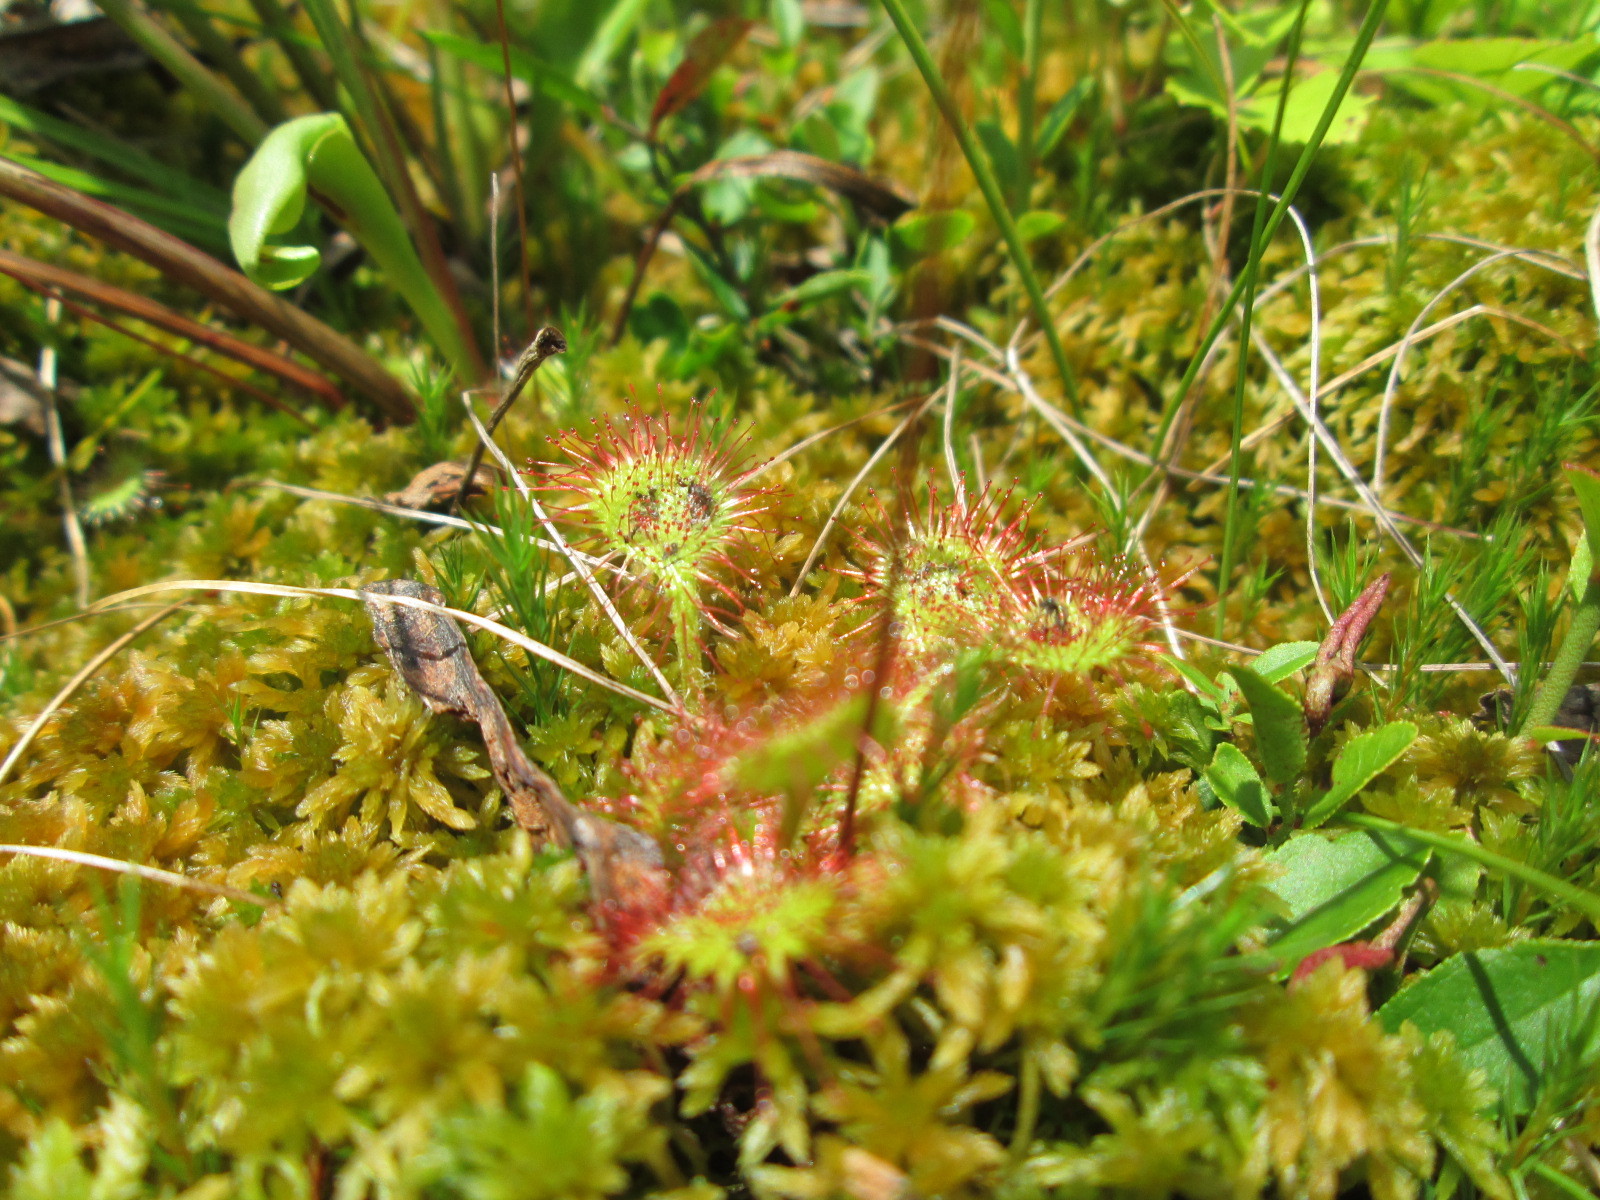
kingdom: Plantae
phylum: Tracheophyta
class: Magnoliopsida
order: Caryophyllales
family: Droseraceae
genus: Drosera
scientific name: Drosera rotundifolia
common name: Round-leaved sundew
